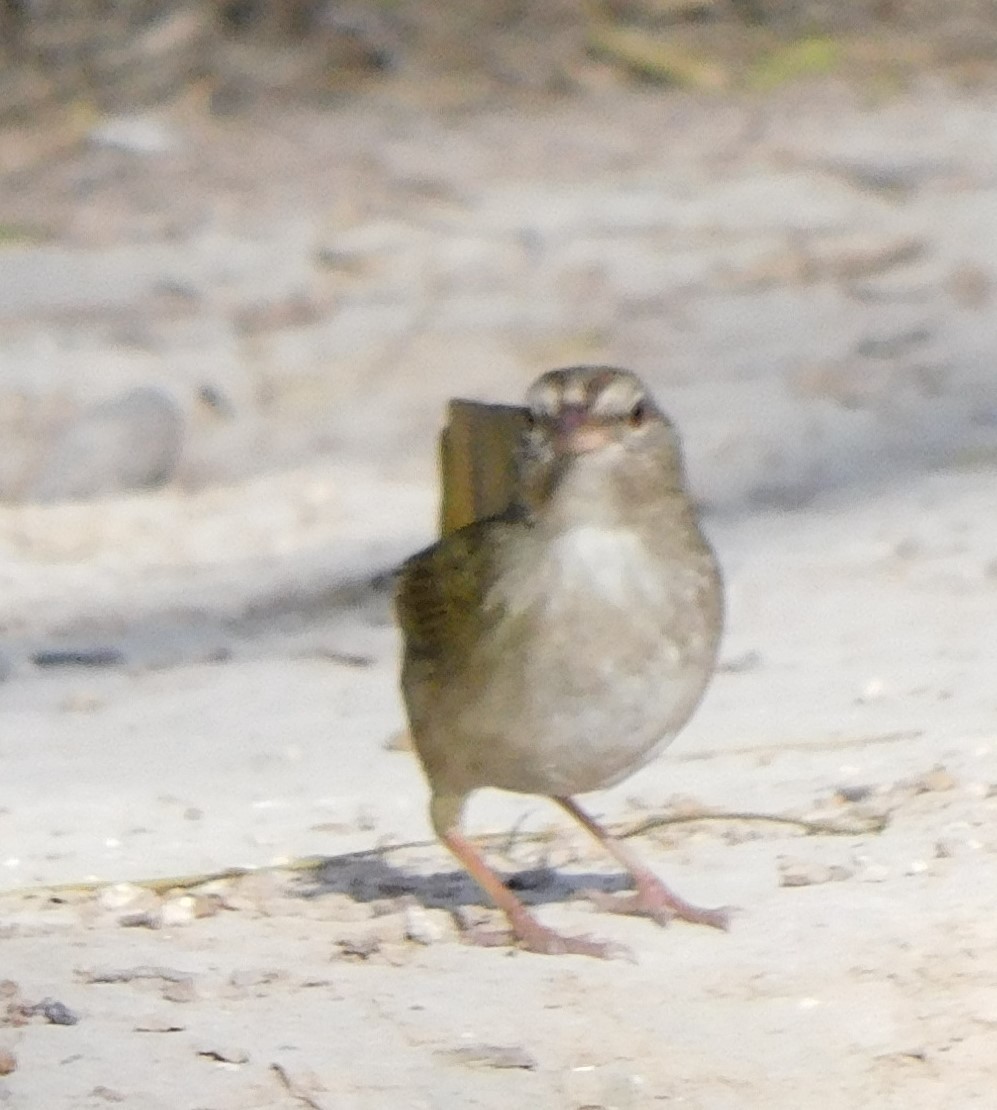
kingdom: Animalia
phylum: Chordata
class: Aves
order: Passeriformes
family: Passerellidae
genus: Arremonops
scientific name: Arremonops rufivirgatus
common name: Olive sparrow
